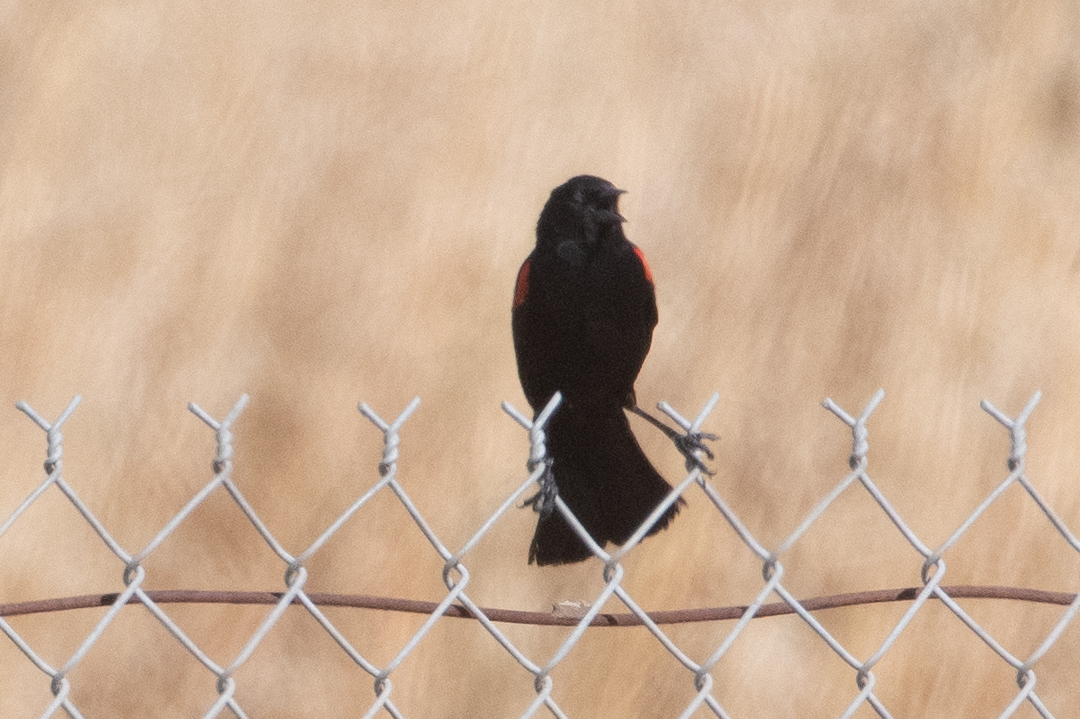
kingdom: Animalia
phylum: Chordata
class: Aves
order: Passeriformes
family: Icteridae
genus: Agelaius
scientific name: Agelaius phoeniceus
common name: Red-winged blackbird
